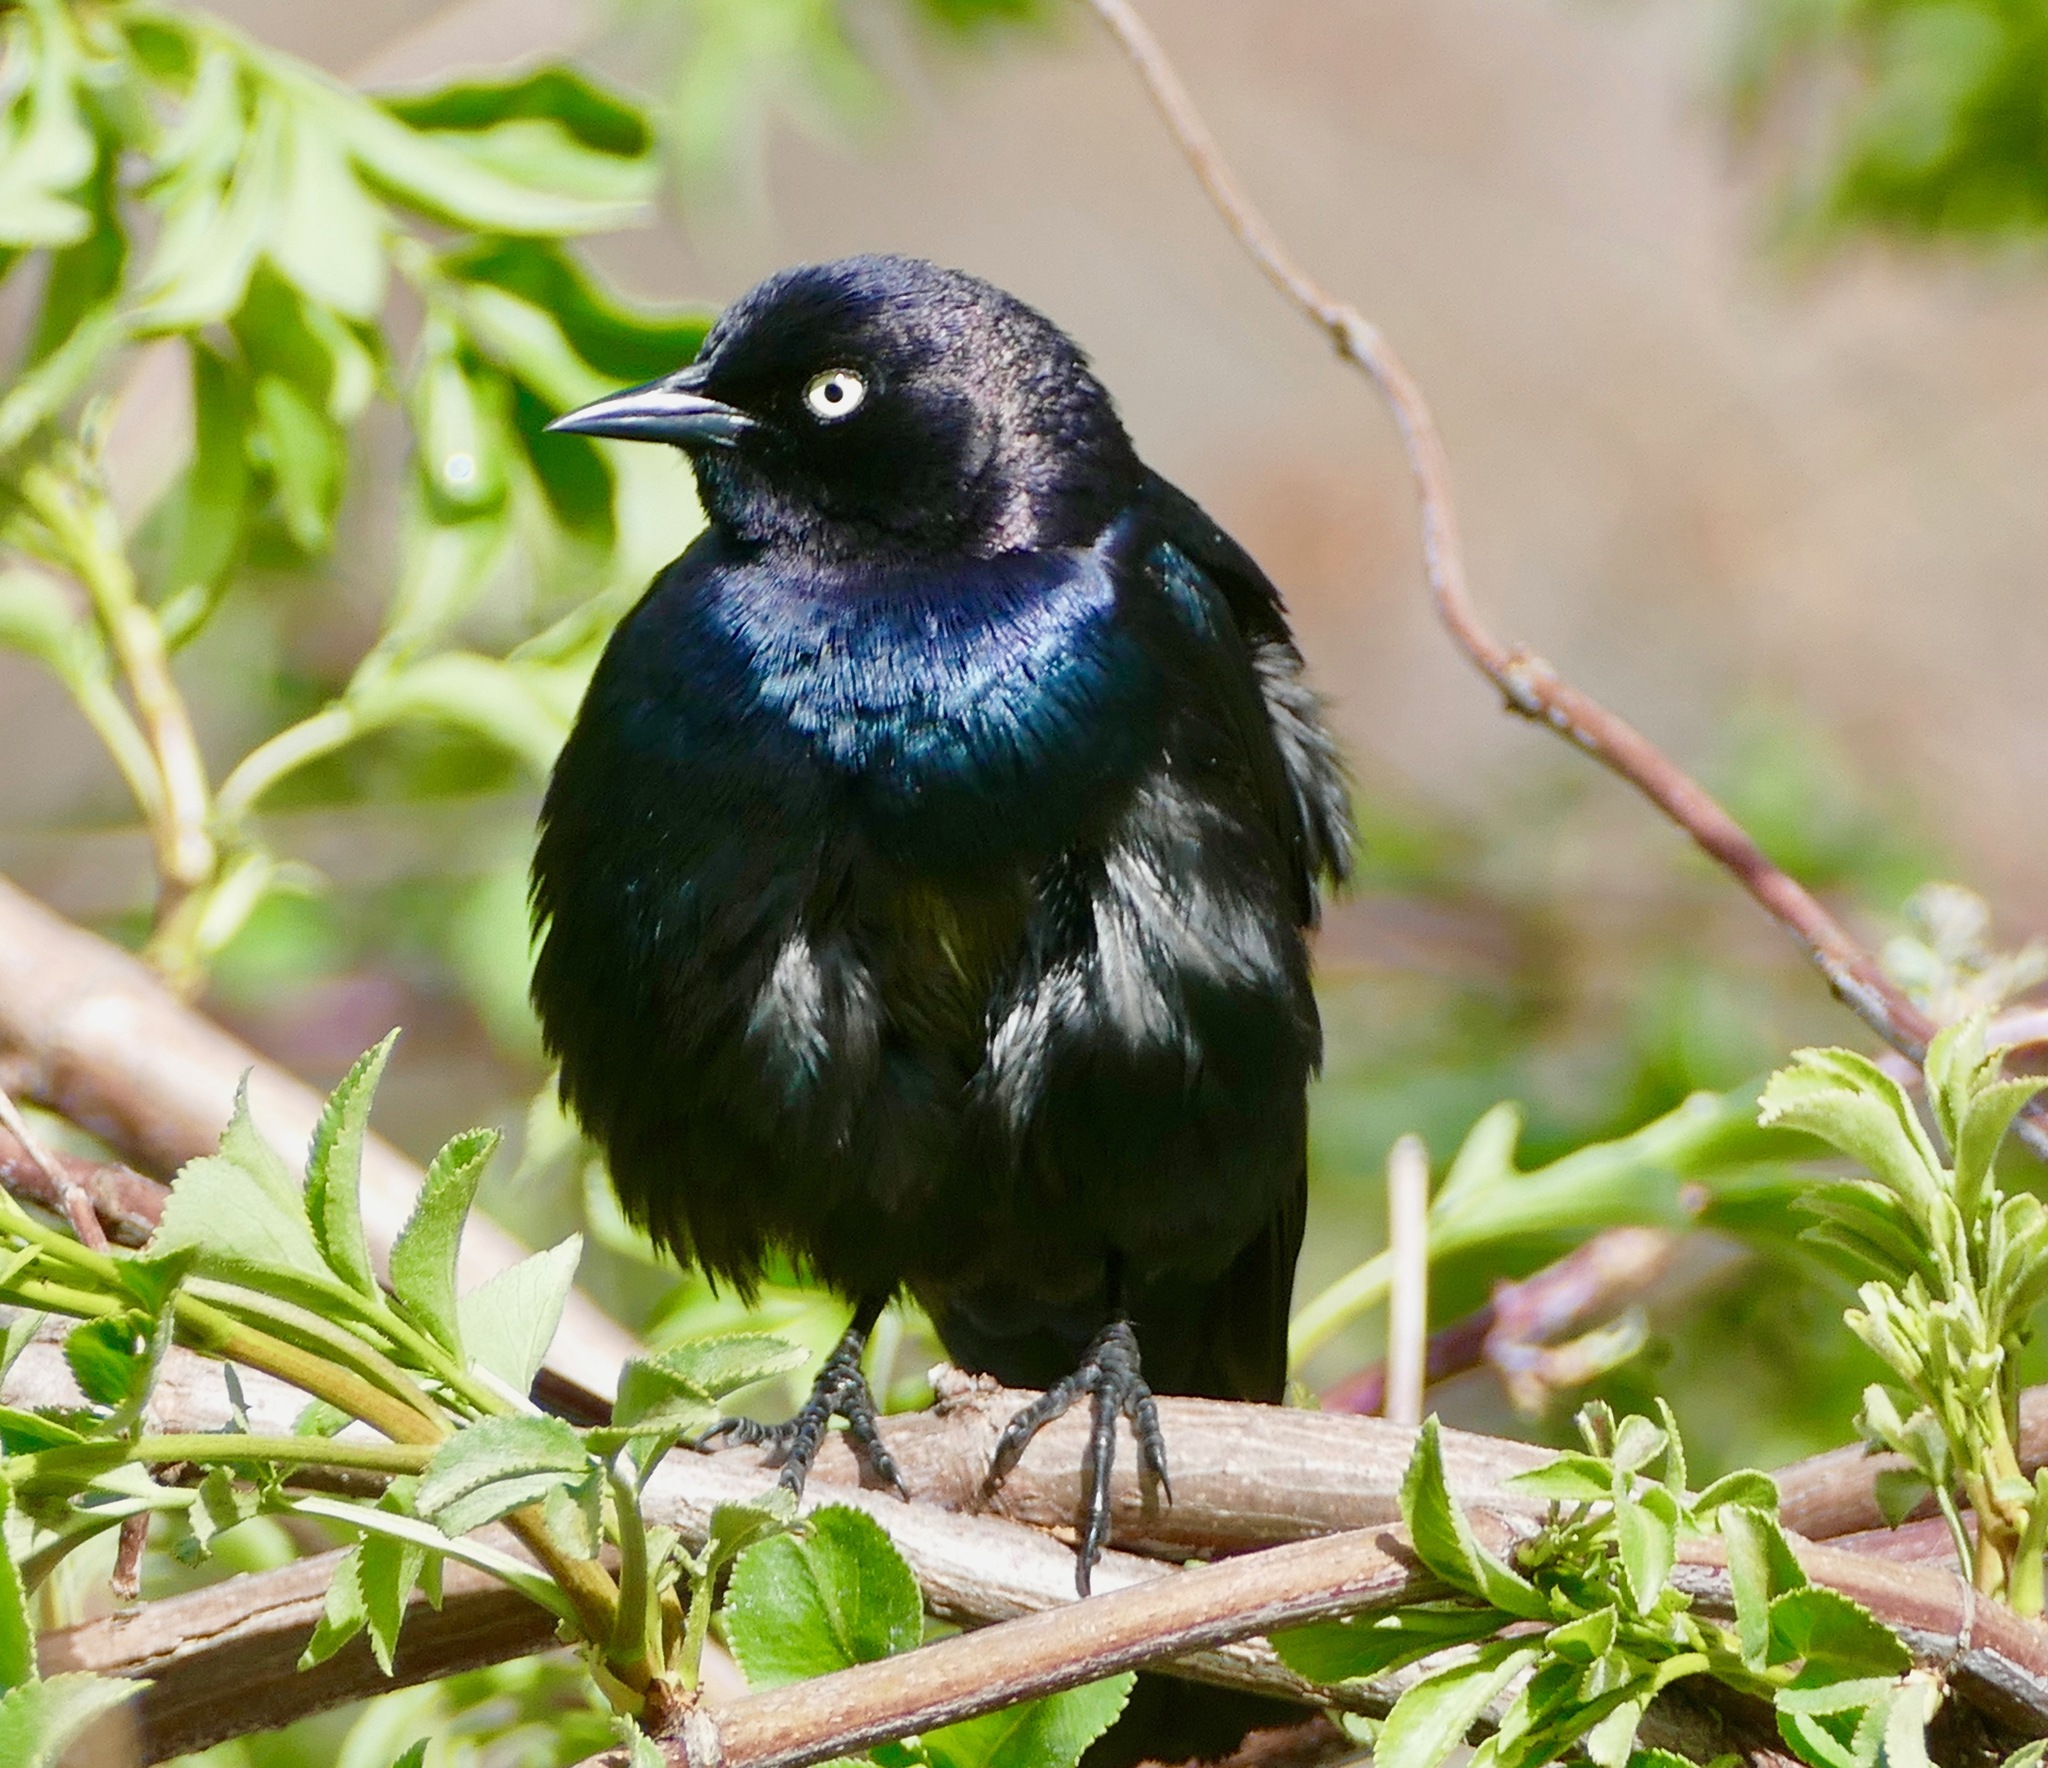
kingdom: Animalia
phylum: Chordata
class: Aves
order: Passeriformes
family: Icteridae
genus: Euphagus
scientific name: Euphagus cyanocephalus
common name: Brewer's blackbird
